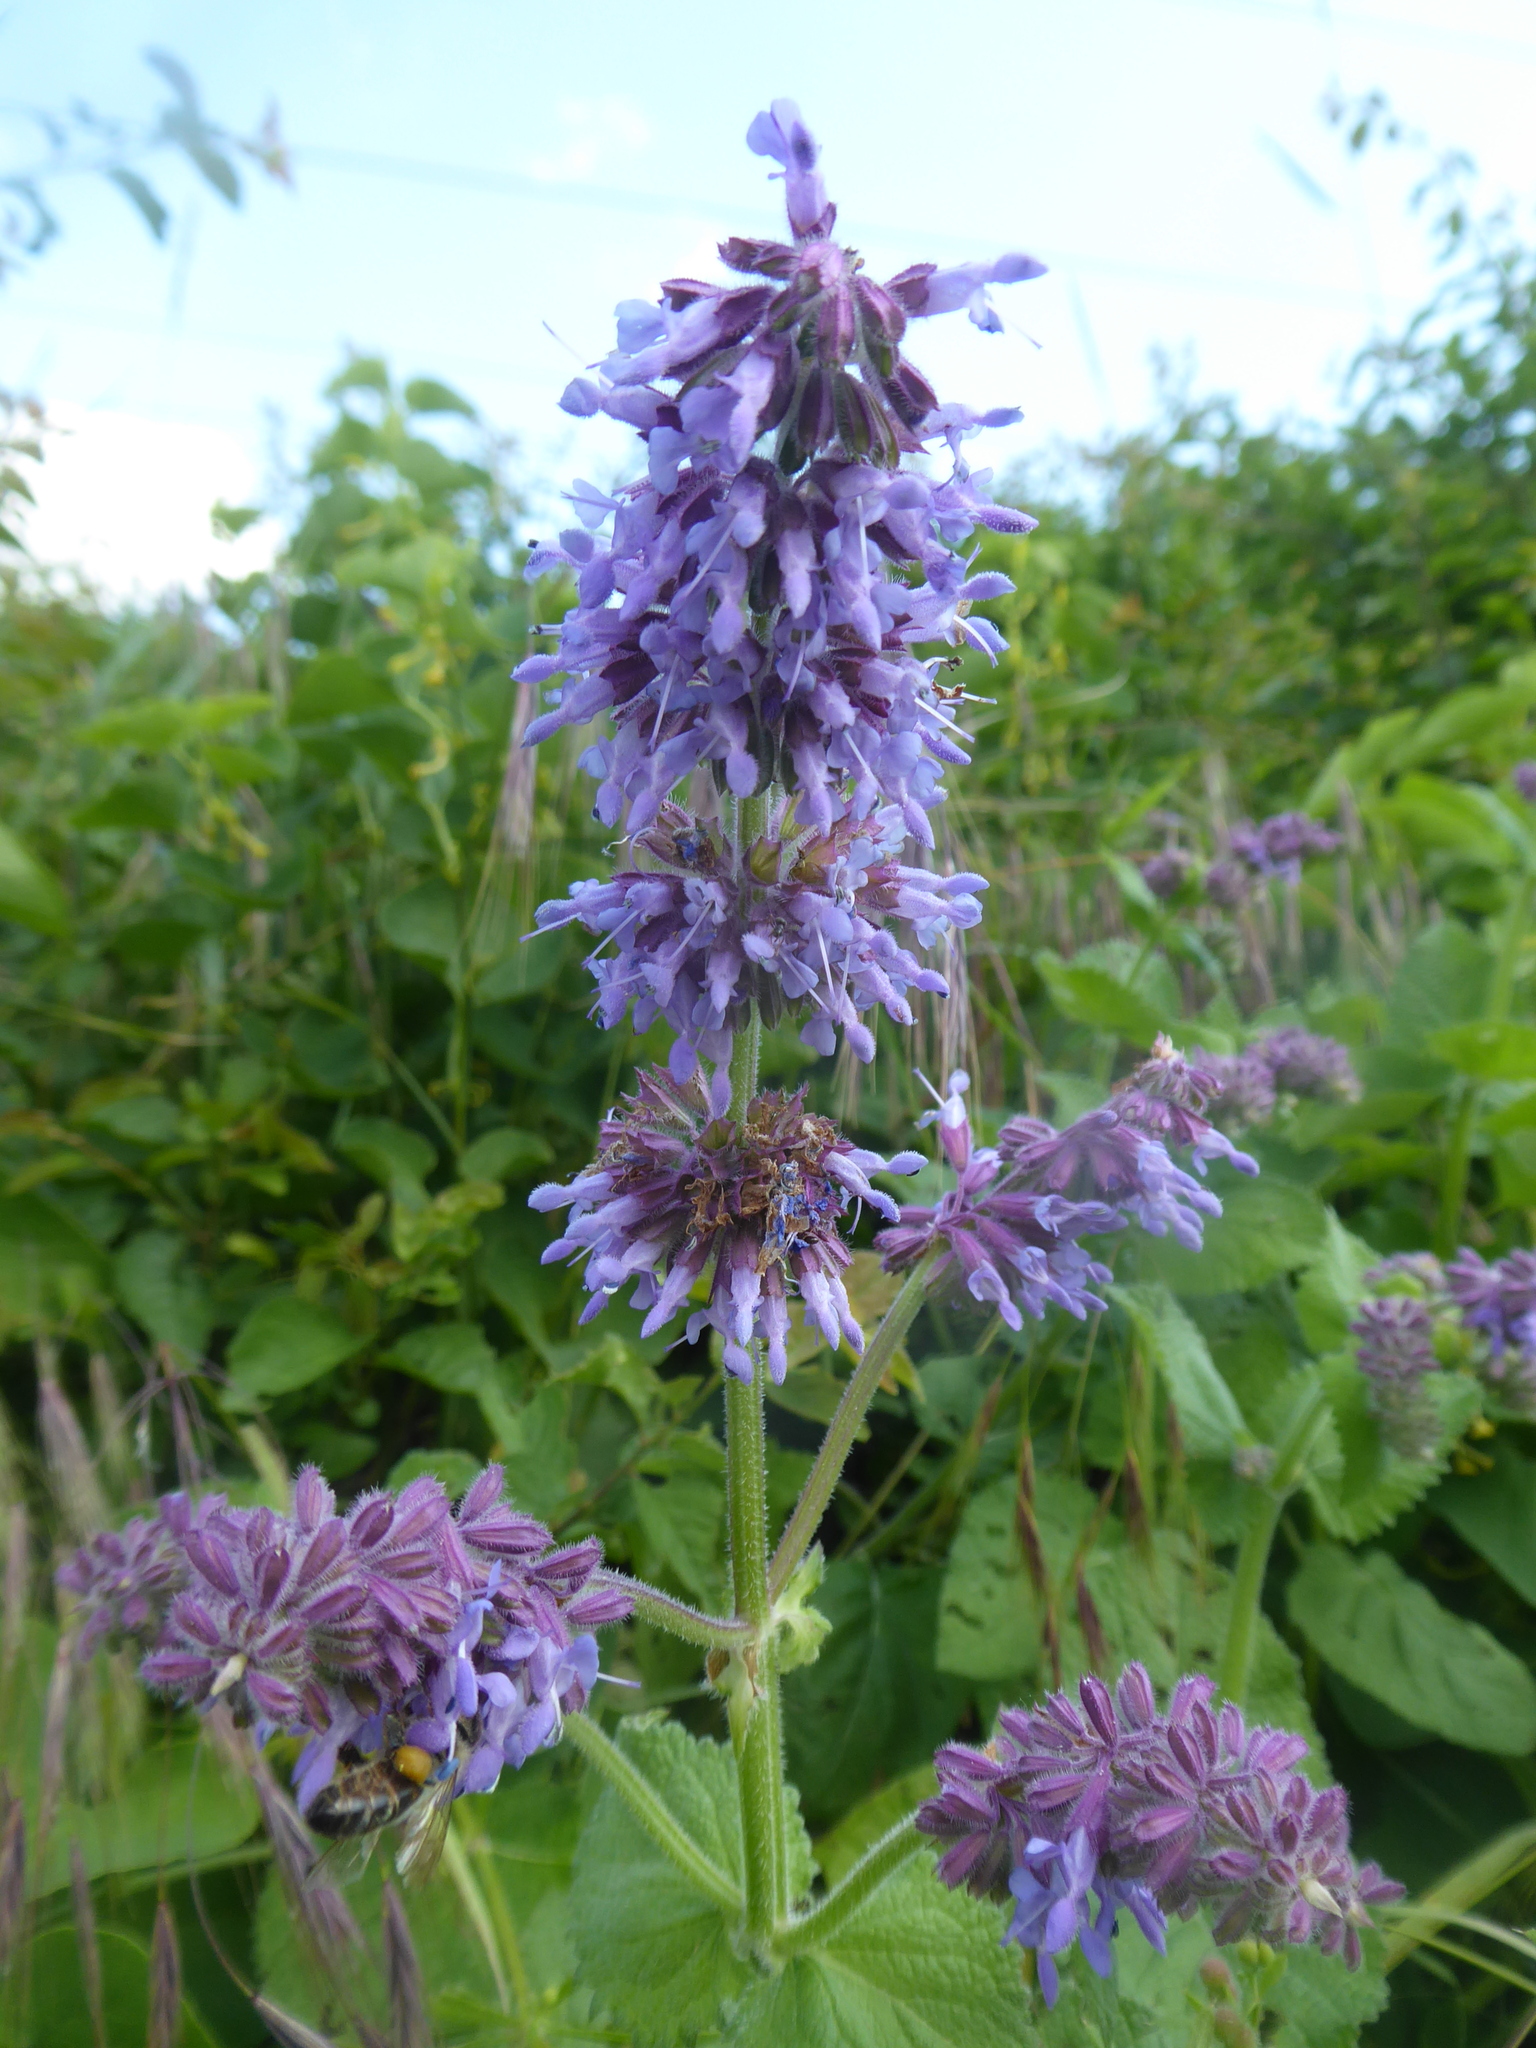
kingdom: Plantae
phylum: Tracheophyta
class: Magnoliopsida
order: Lamiales
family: Lamiaceae
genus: Salvia
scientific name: Salvia verticillata
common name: Whorled clary
